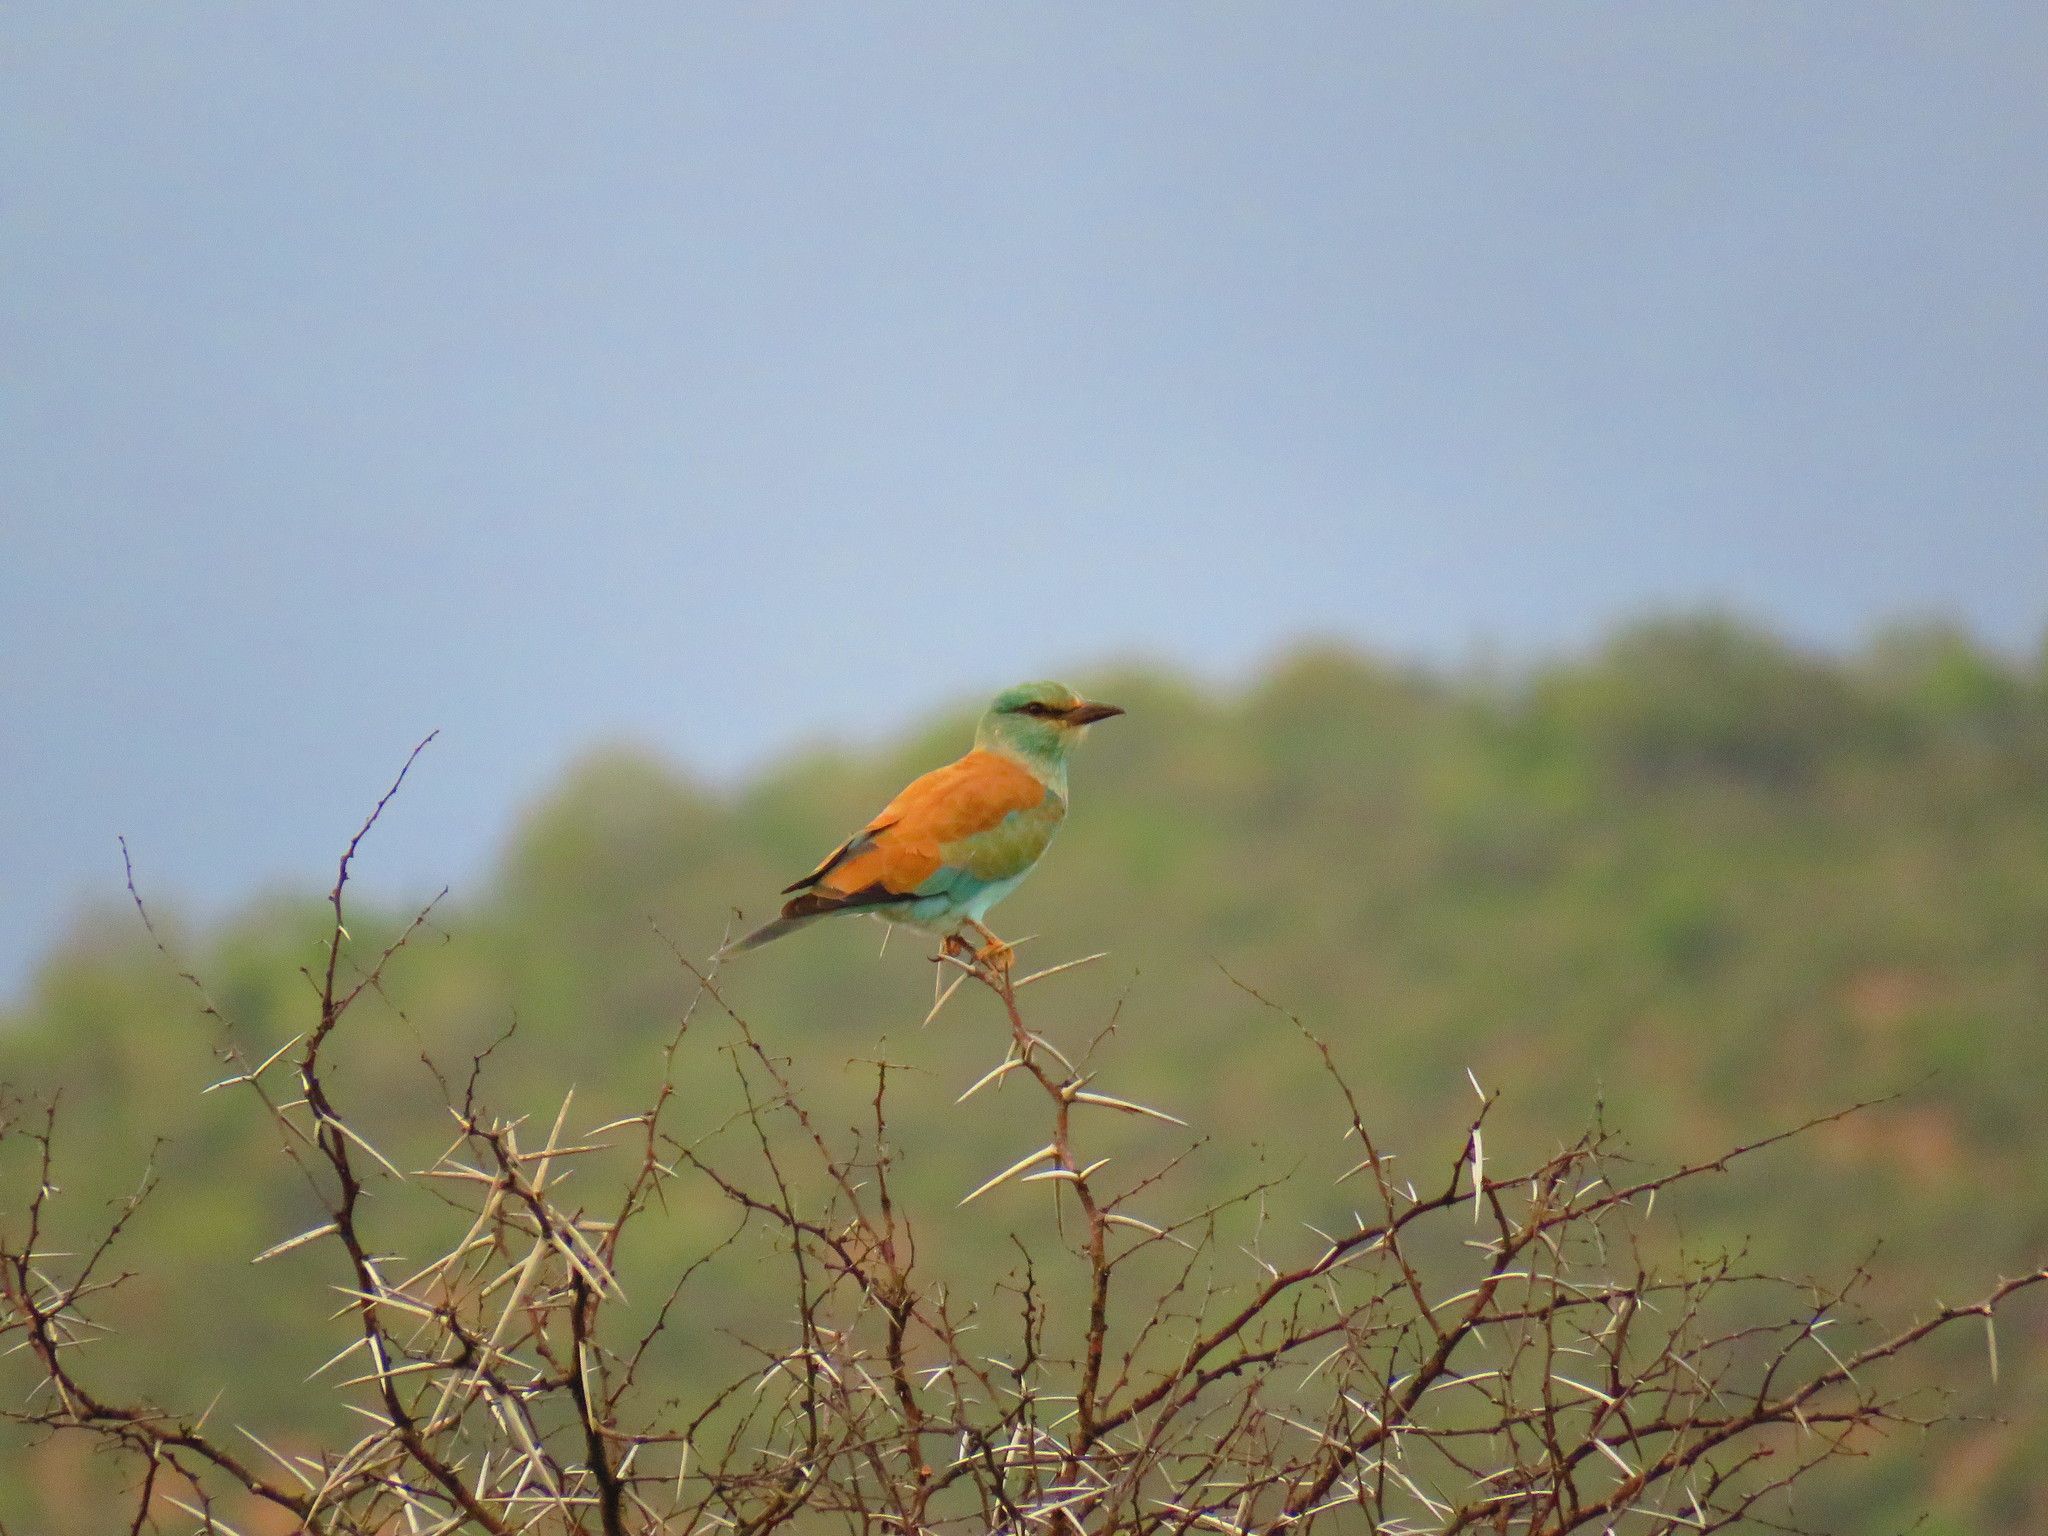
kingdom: Animalia
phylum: Chordata
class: Aves
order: Coraciiformes
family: Coraciidae
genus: Coracias
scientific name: Coracias garrulus
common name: European roller
